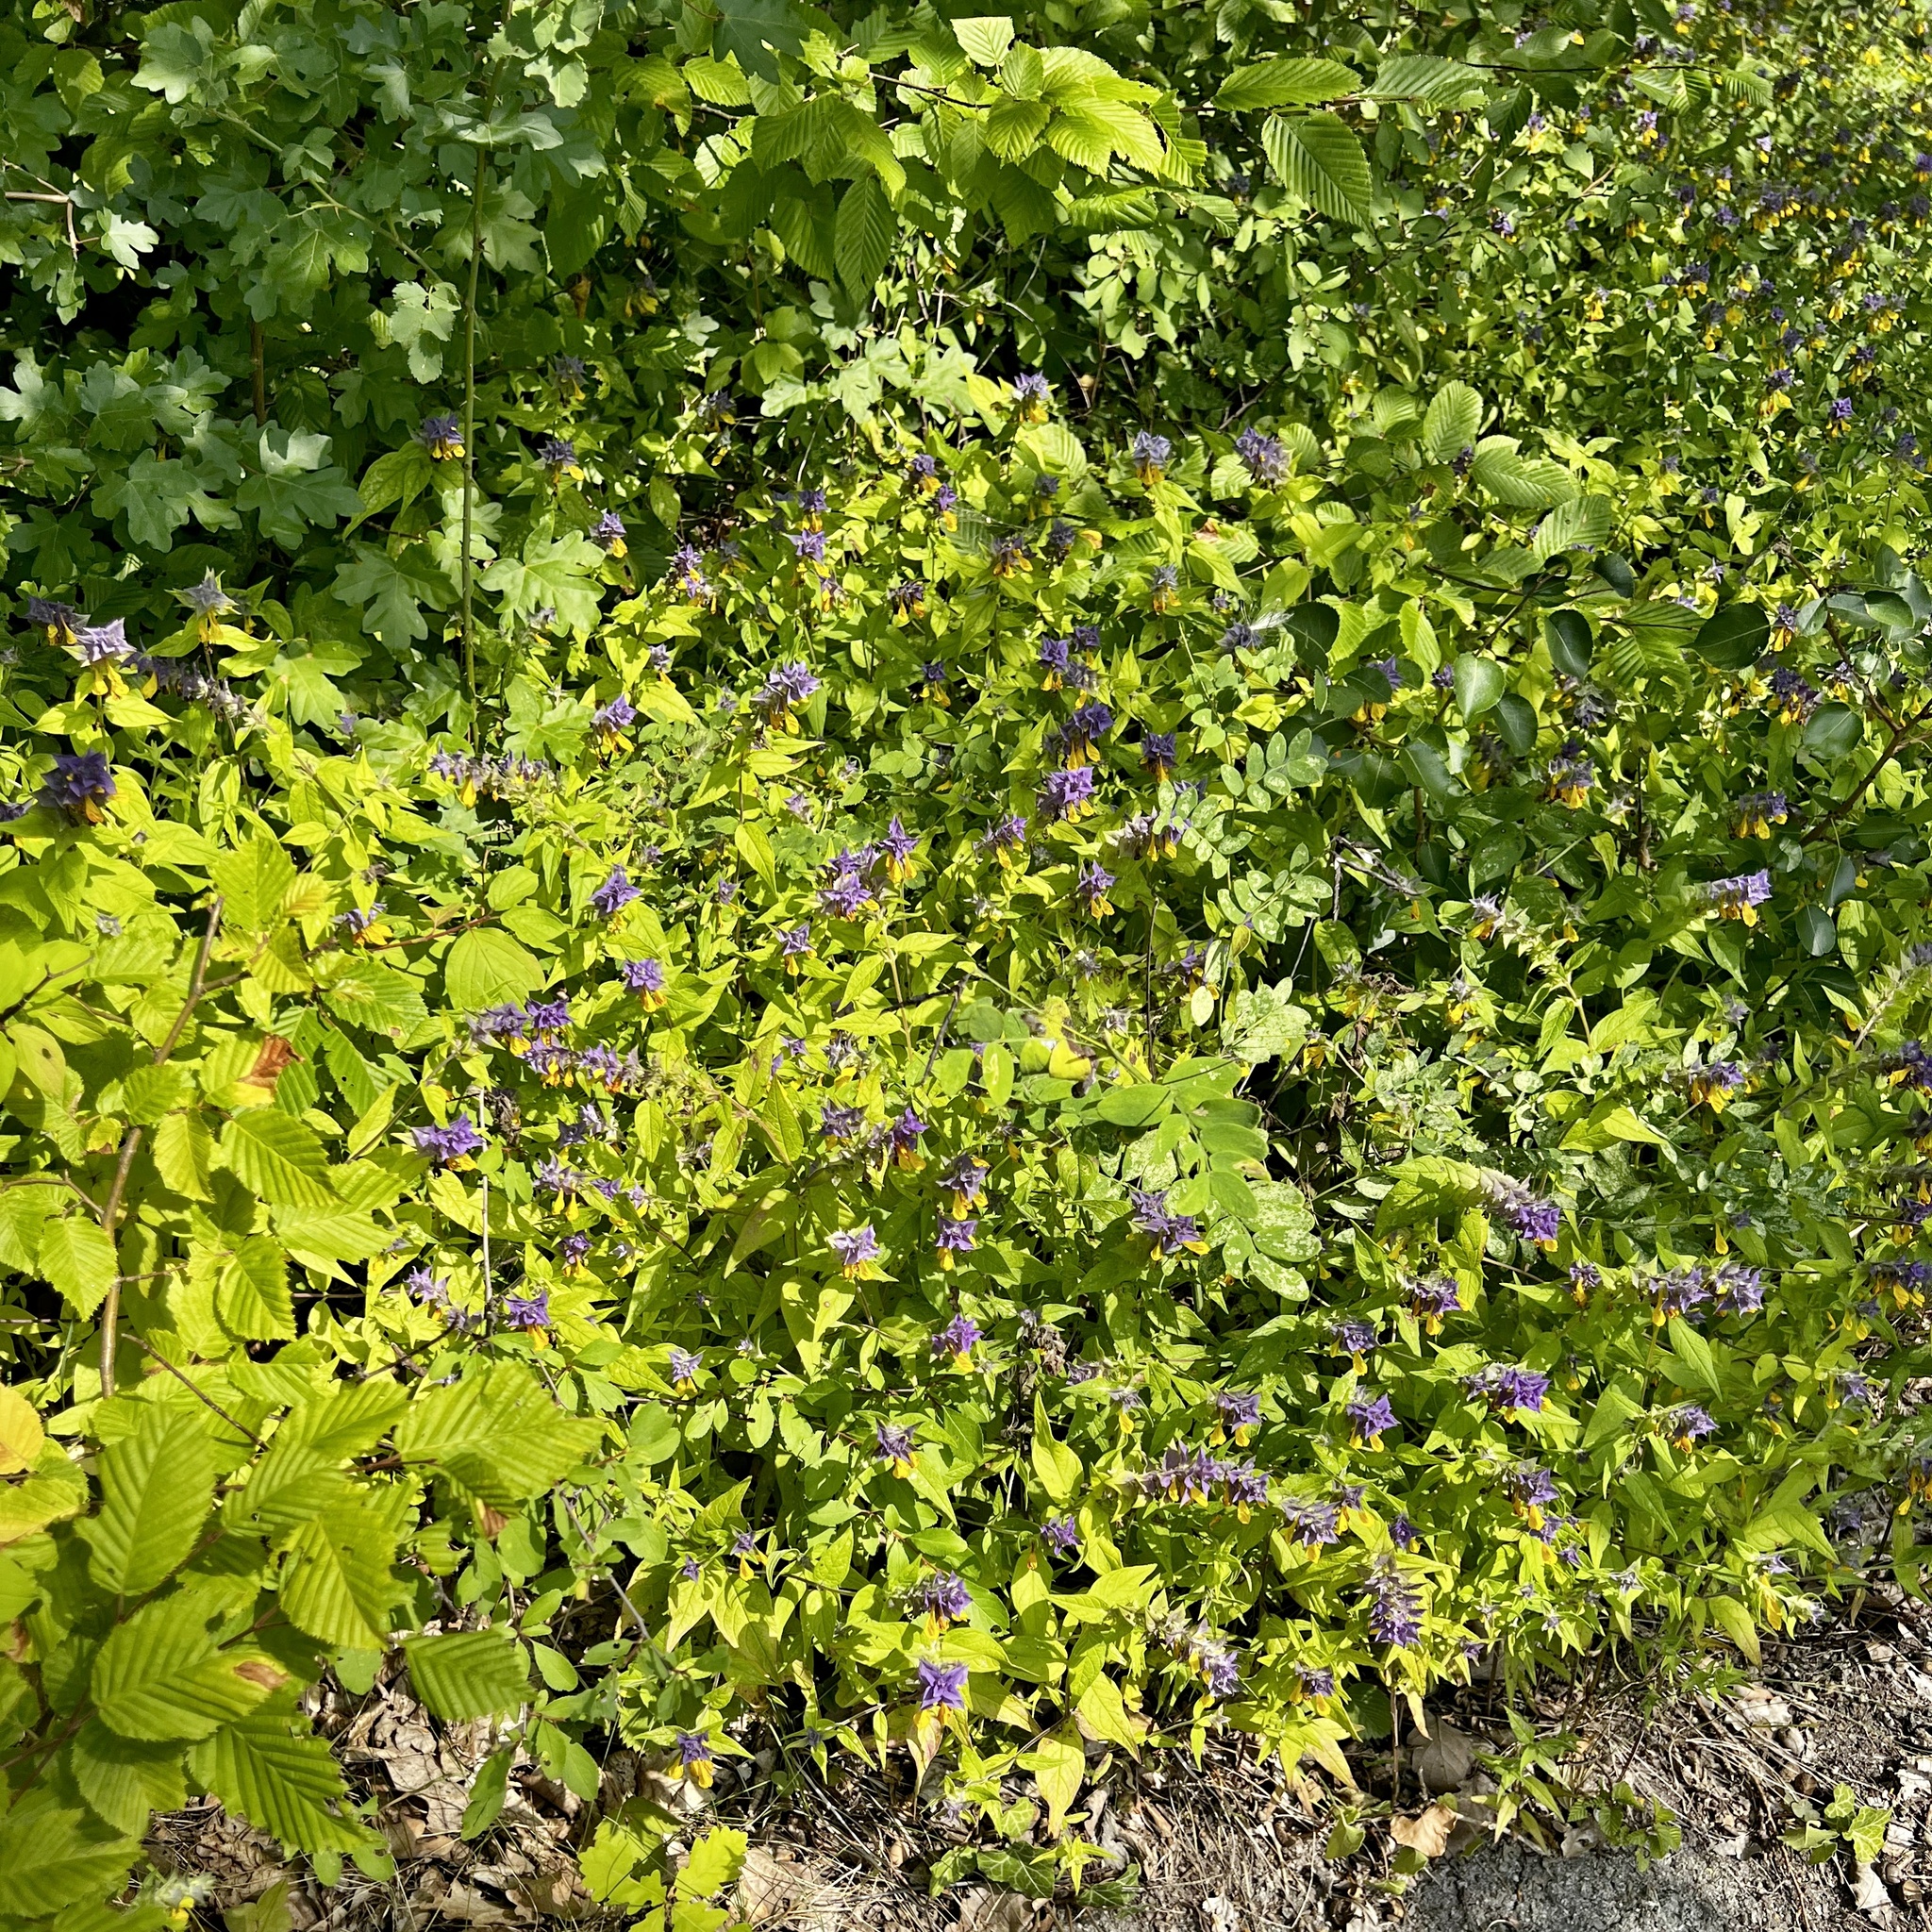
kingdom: Plantae
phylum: Tracheophyta
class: Magnoliopsida
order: Lamiales
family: Orobanchaceae
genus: Melampyrum
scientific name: Melampyrum nemorosum
